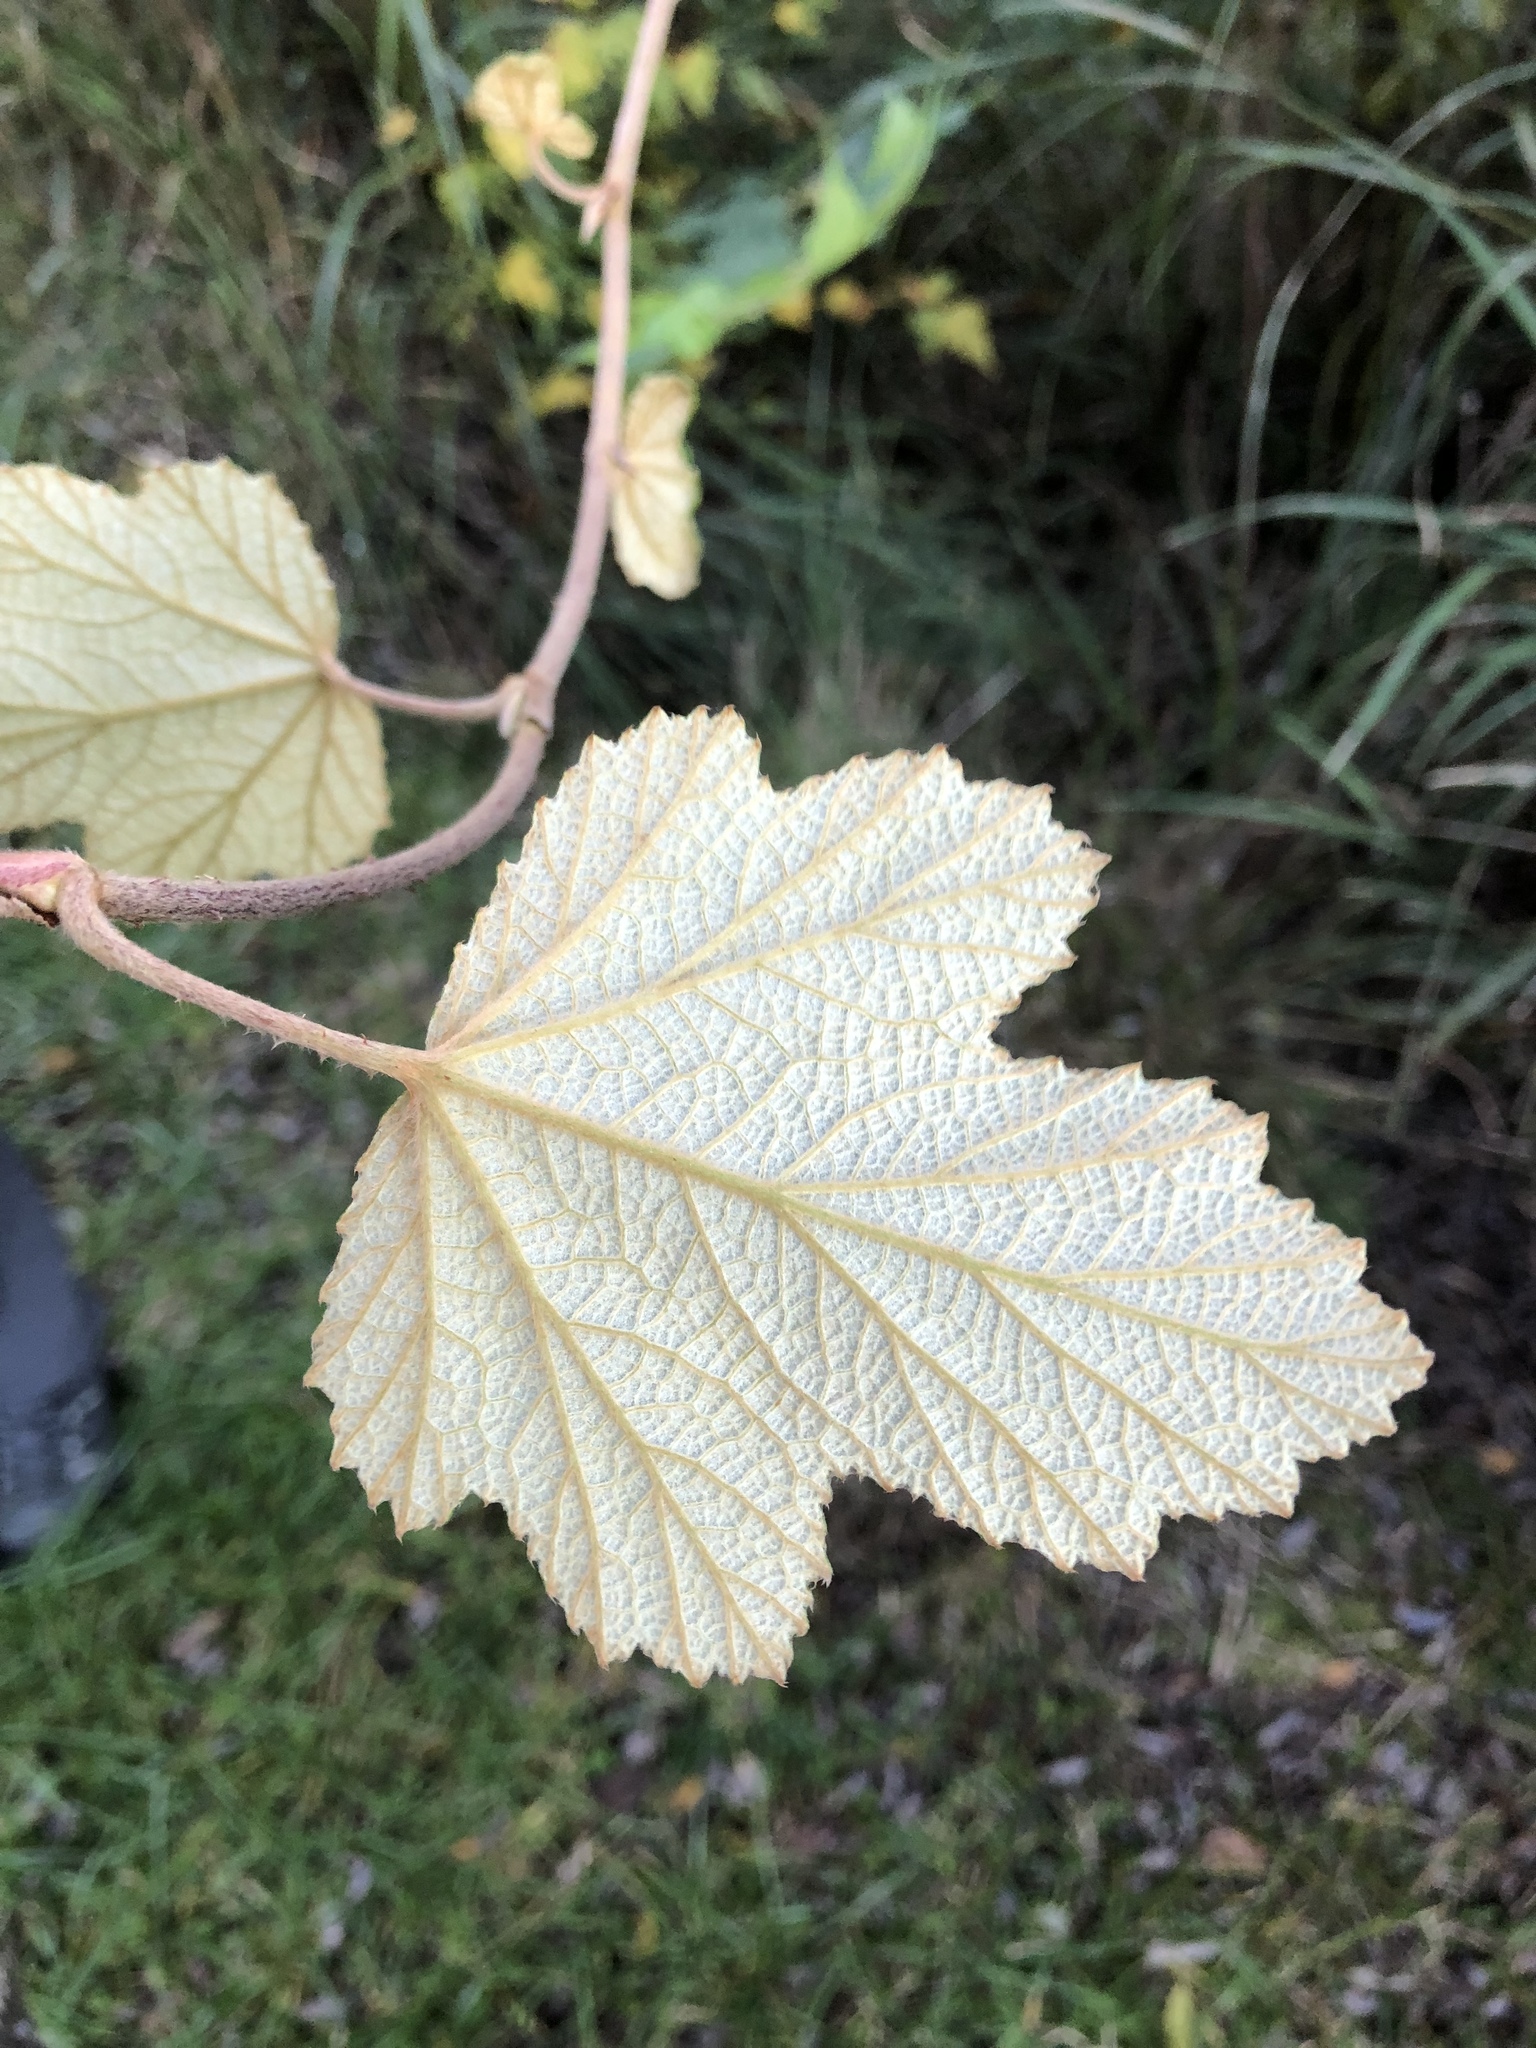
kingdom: Plantae
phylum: Tracheophyta
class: Magnoliopsida
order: Rosales
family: Rosaceae
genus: Rubus
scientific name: Rubus formosensis
